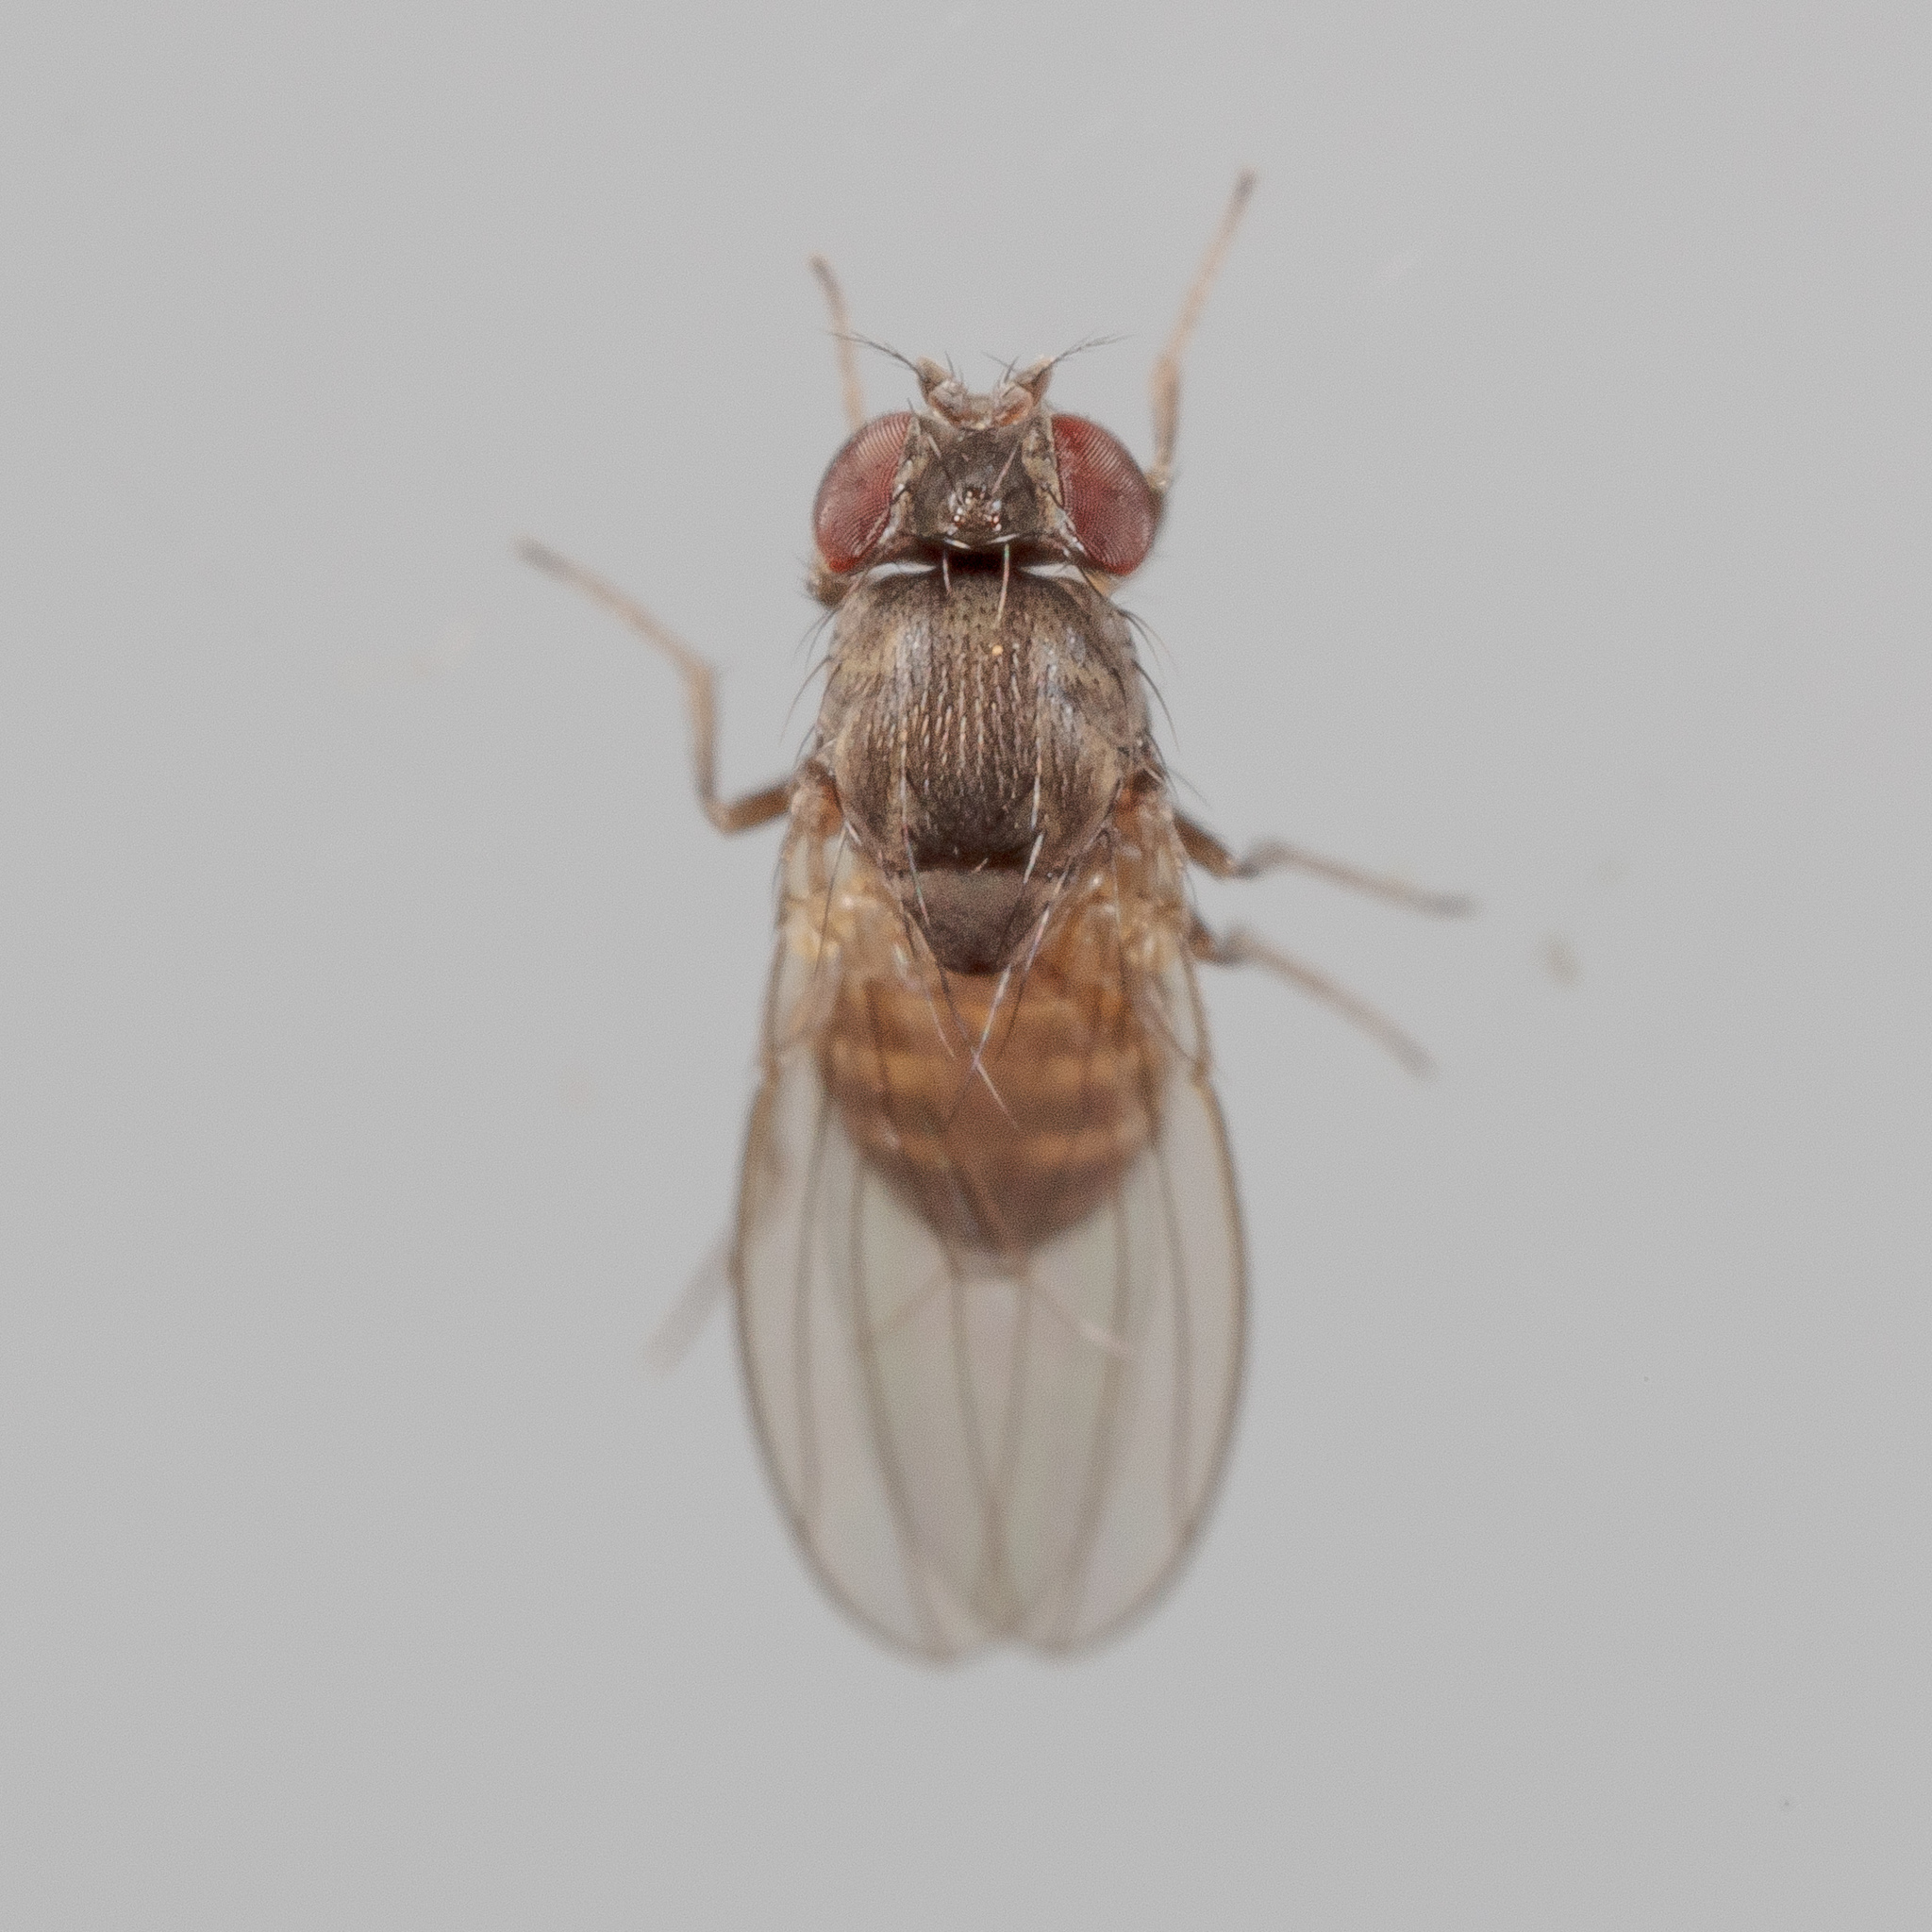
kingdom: Animalia
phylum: Arthropoda
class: Insecta
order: Diptera
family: Drosophilidae
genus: Drosophila
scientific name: Drosophila melanica
